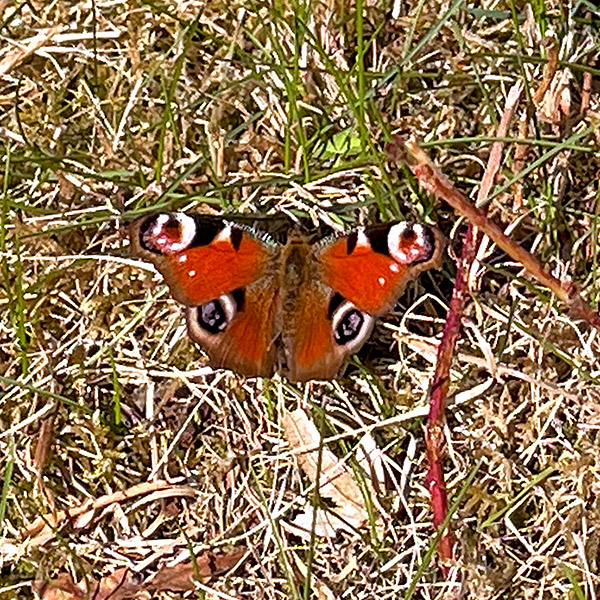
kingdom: Animalia
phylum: Arthropoda
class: Insecta
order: Lepidoptera
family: Nymphalidae
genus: Aglais
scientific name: Aglais io
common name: Peacock
